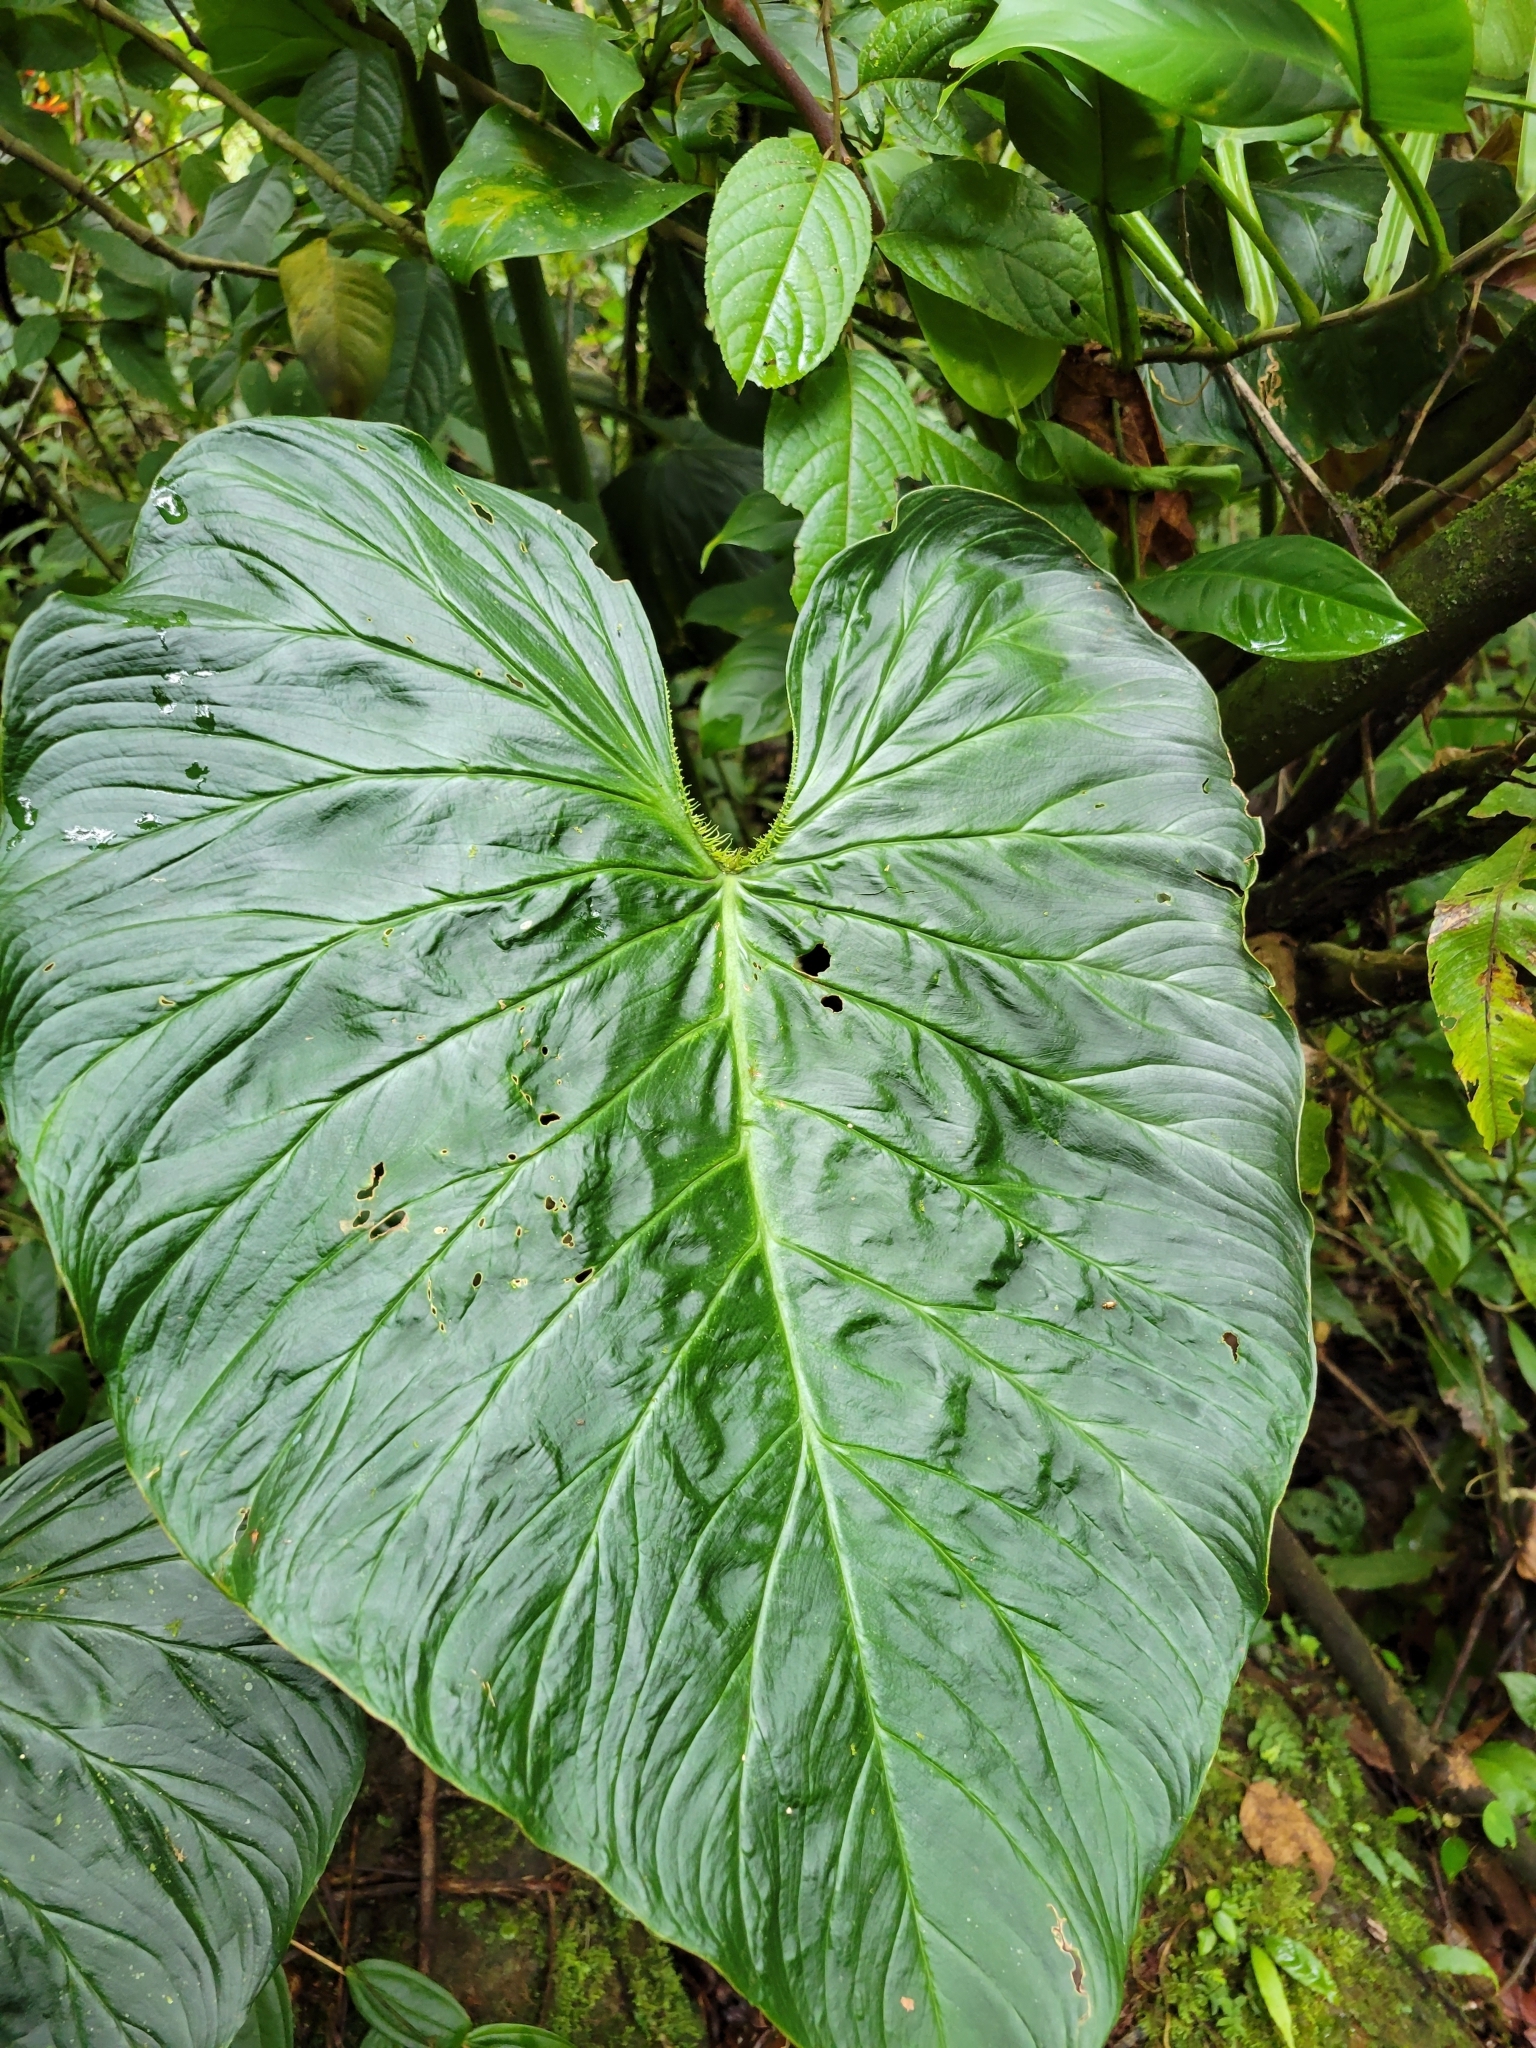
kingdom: Plantae
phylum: Tracheophyta
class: Liliopsida
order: Alismatales
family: Araceae
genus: Philodendron
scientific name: Philodendron verrucosum
